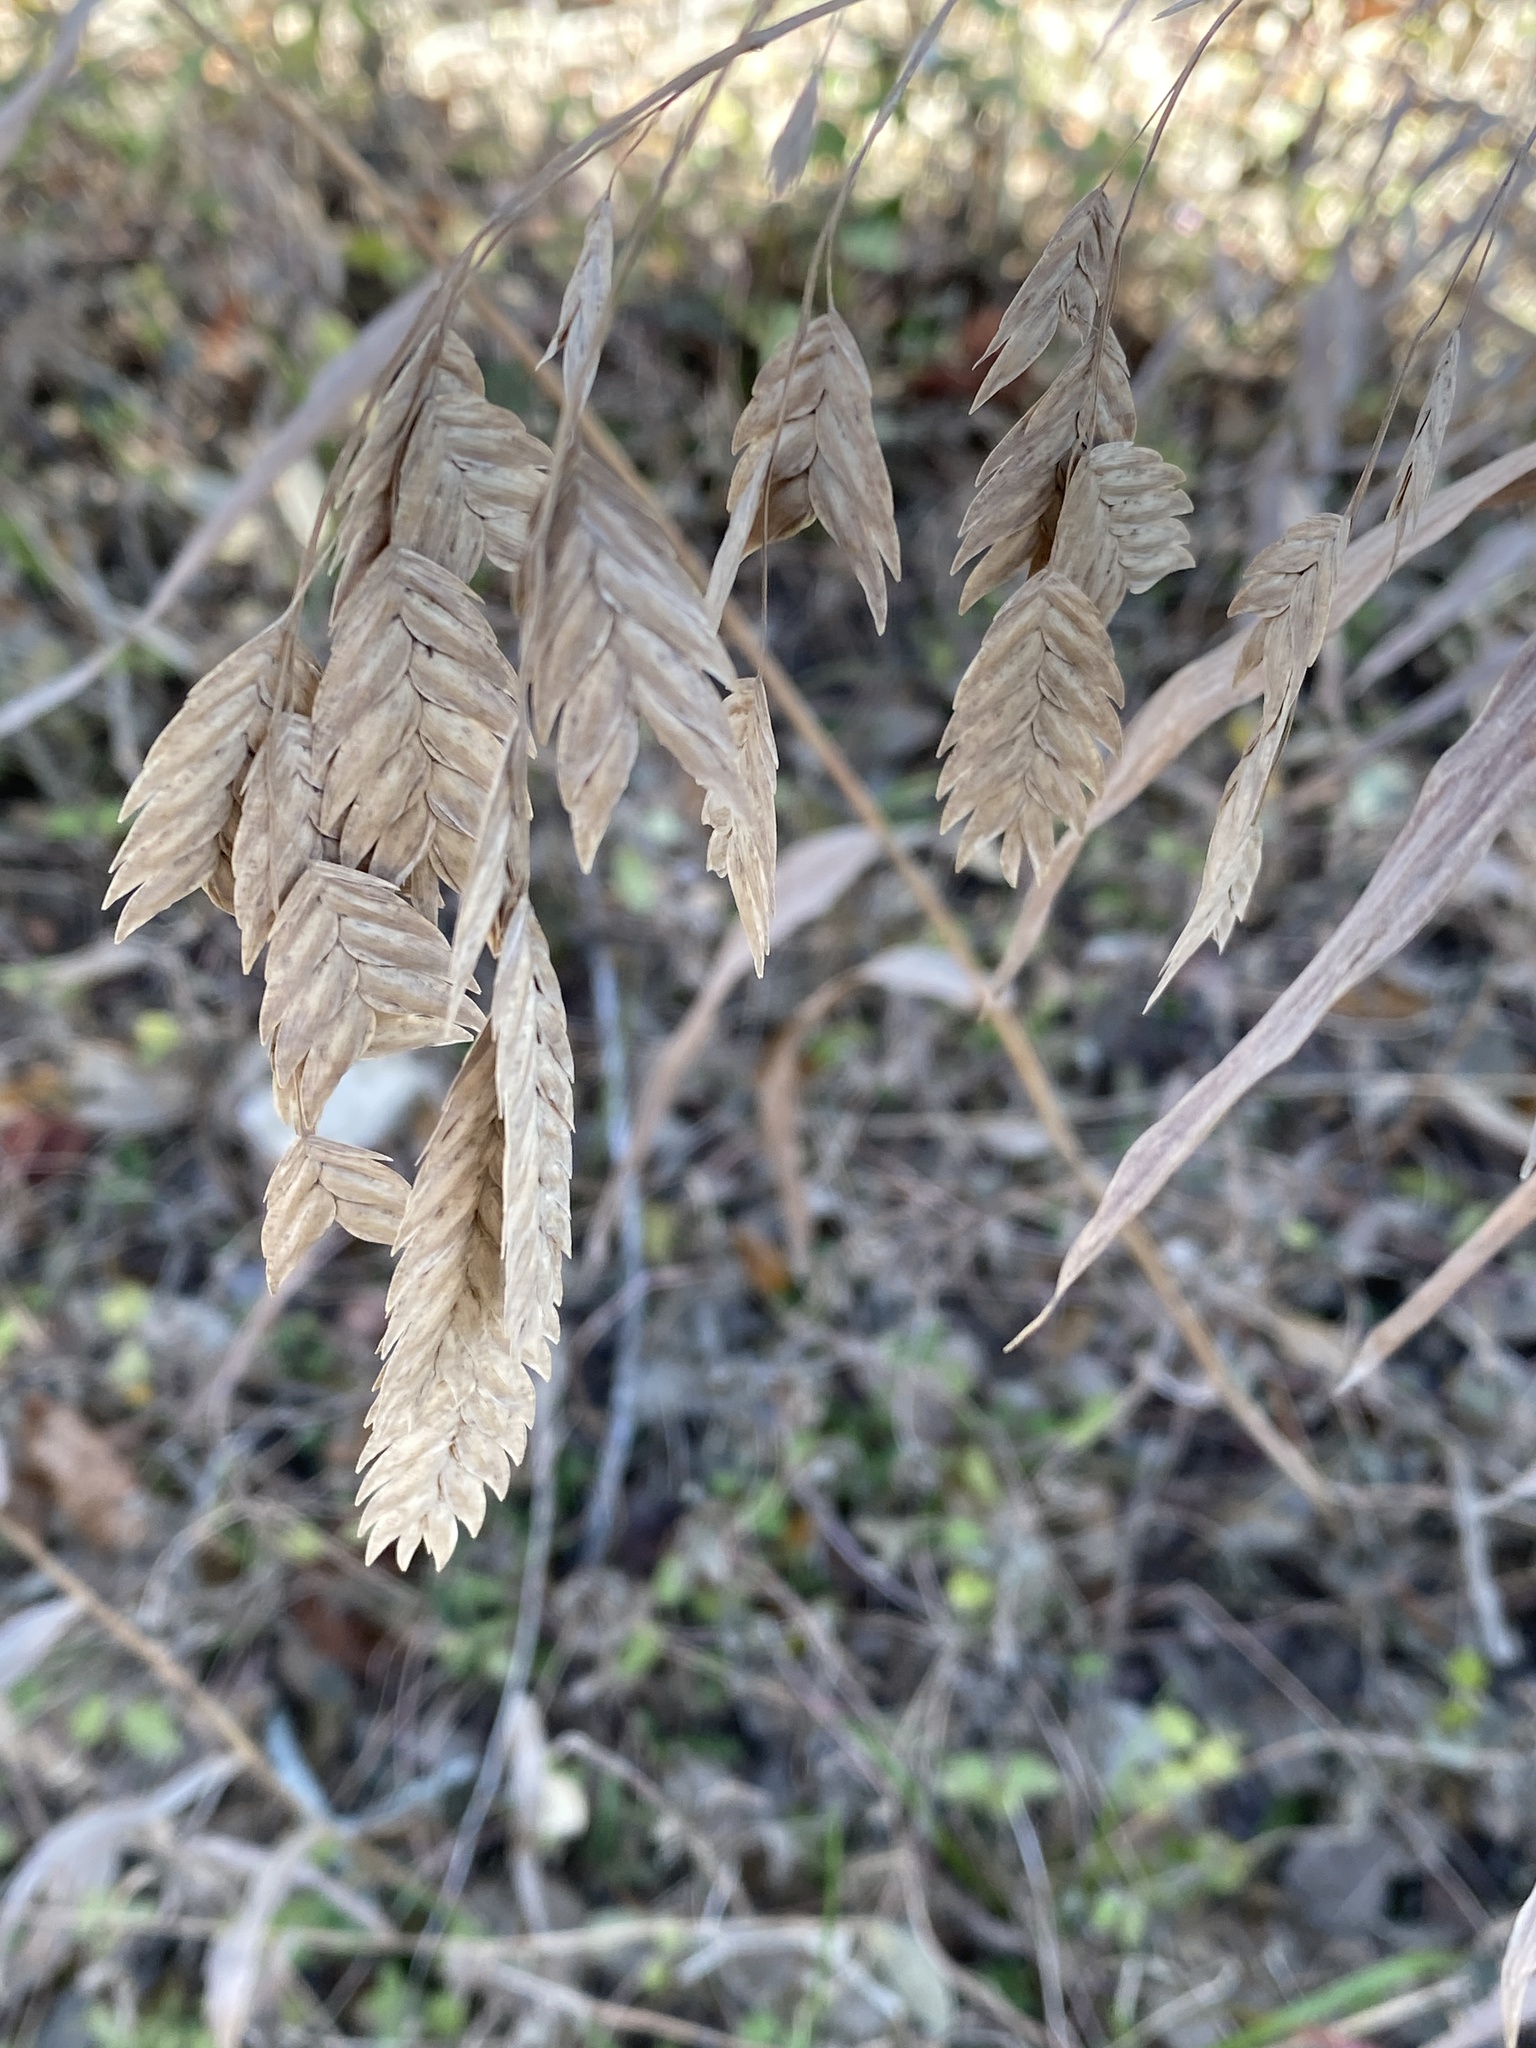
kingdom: Plantae
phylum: Tracheophyta
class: Liliopsida
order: Poales
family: Poaceae
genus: Chasmanthium
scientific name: Chasmanthium latifolium
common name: Broad-leaved chasmanthium
